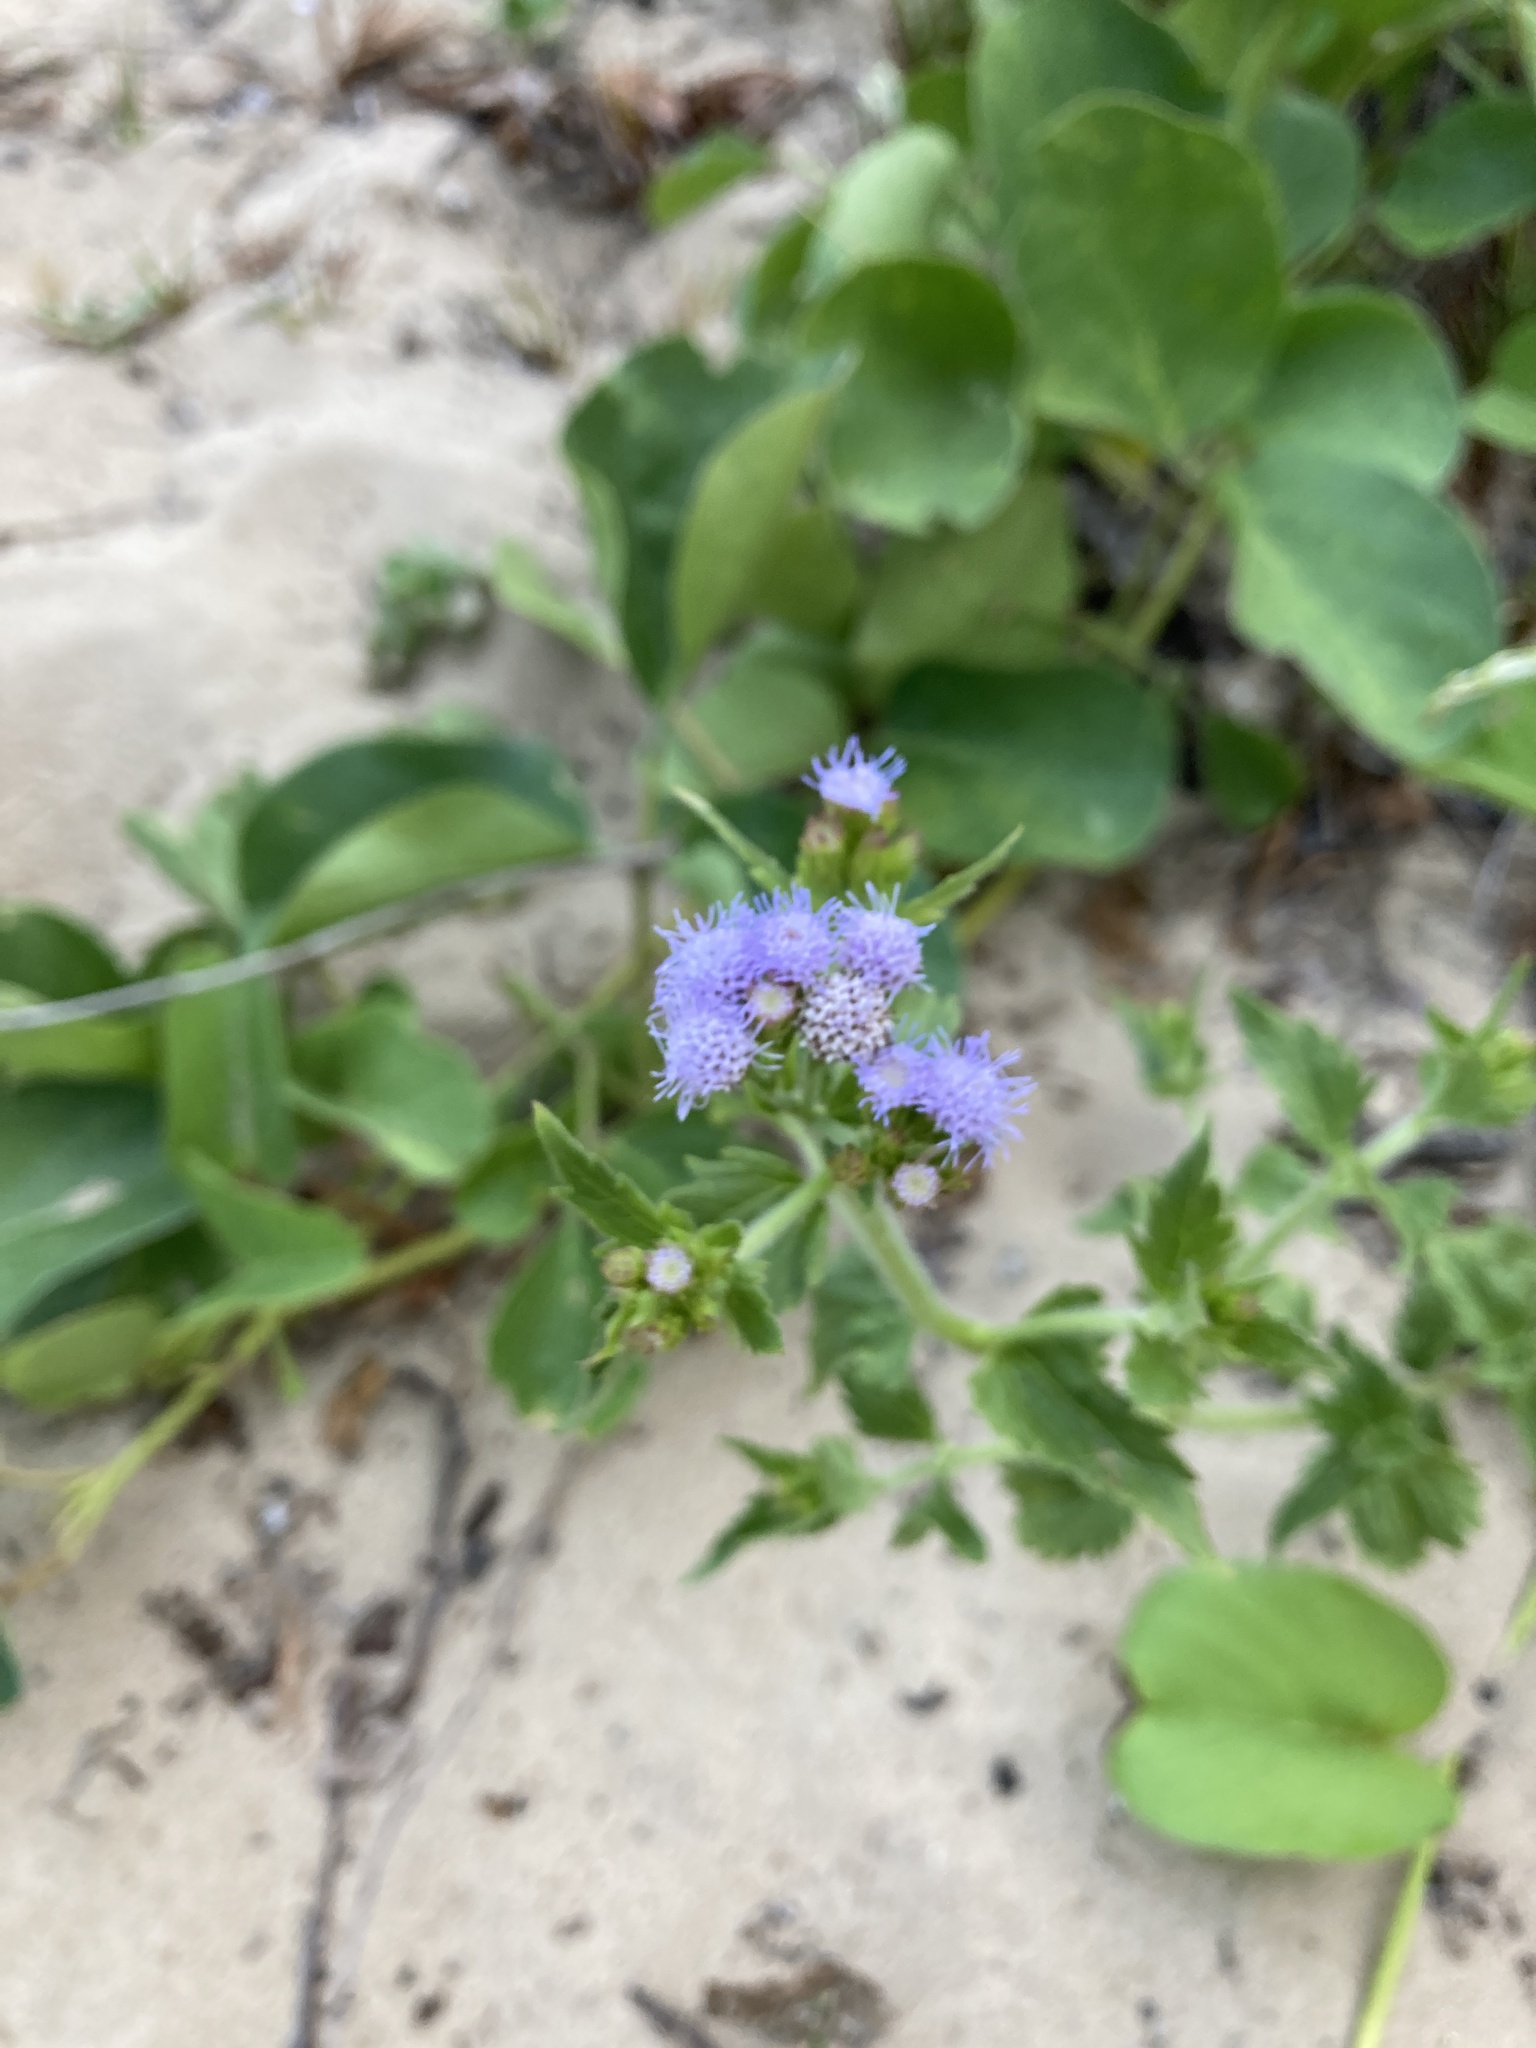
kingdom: Plantae
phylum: Tracheophyta
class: Magnoliopsida
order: Asterales
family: Asteraceae
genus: Praxelis
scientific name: Praxelis clematidea
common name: Praxelis
